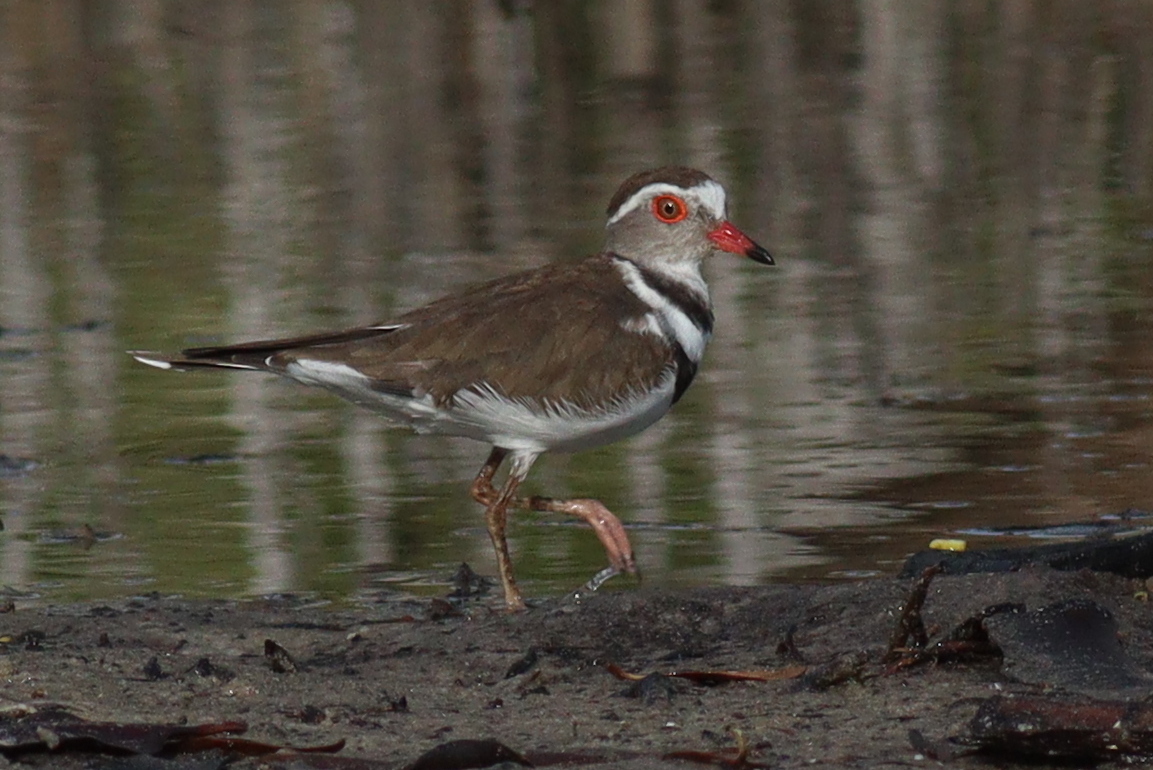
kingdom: Animalia
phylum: Chordata
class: Aves
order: Charadriiformes
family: Charadriidae
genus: Charadrius
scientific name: Charadrius tricollaris
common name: Three-banded plover
